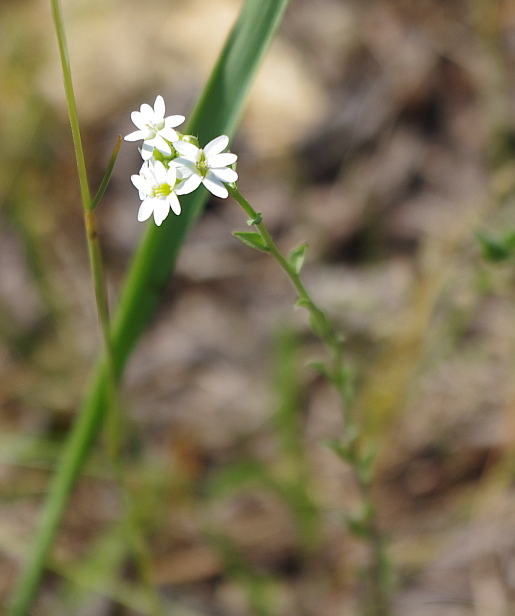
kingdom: Plantae
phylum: Tracheophyta
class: Magnoliopsida
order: Brassicales
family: Brassicaceae
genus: Berteroa
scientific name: Berteroa incana
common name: Hoary alison
